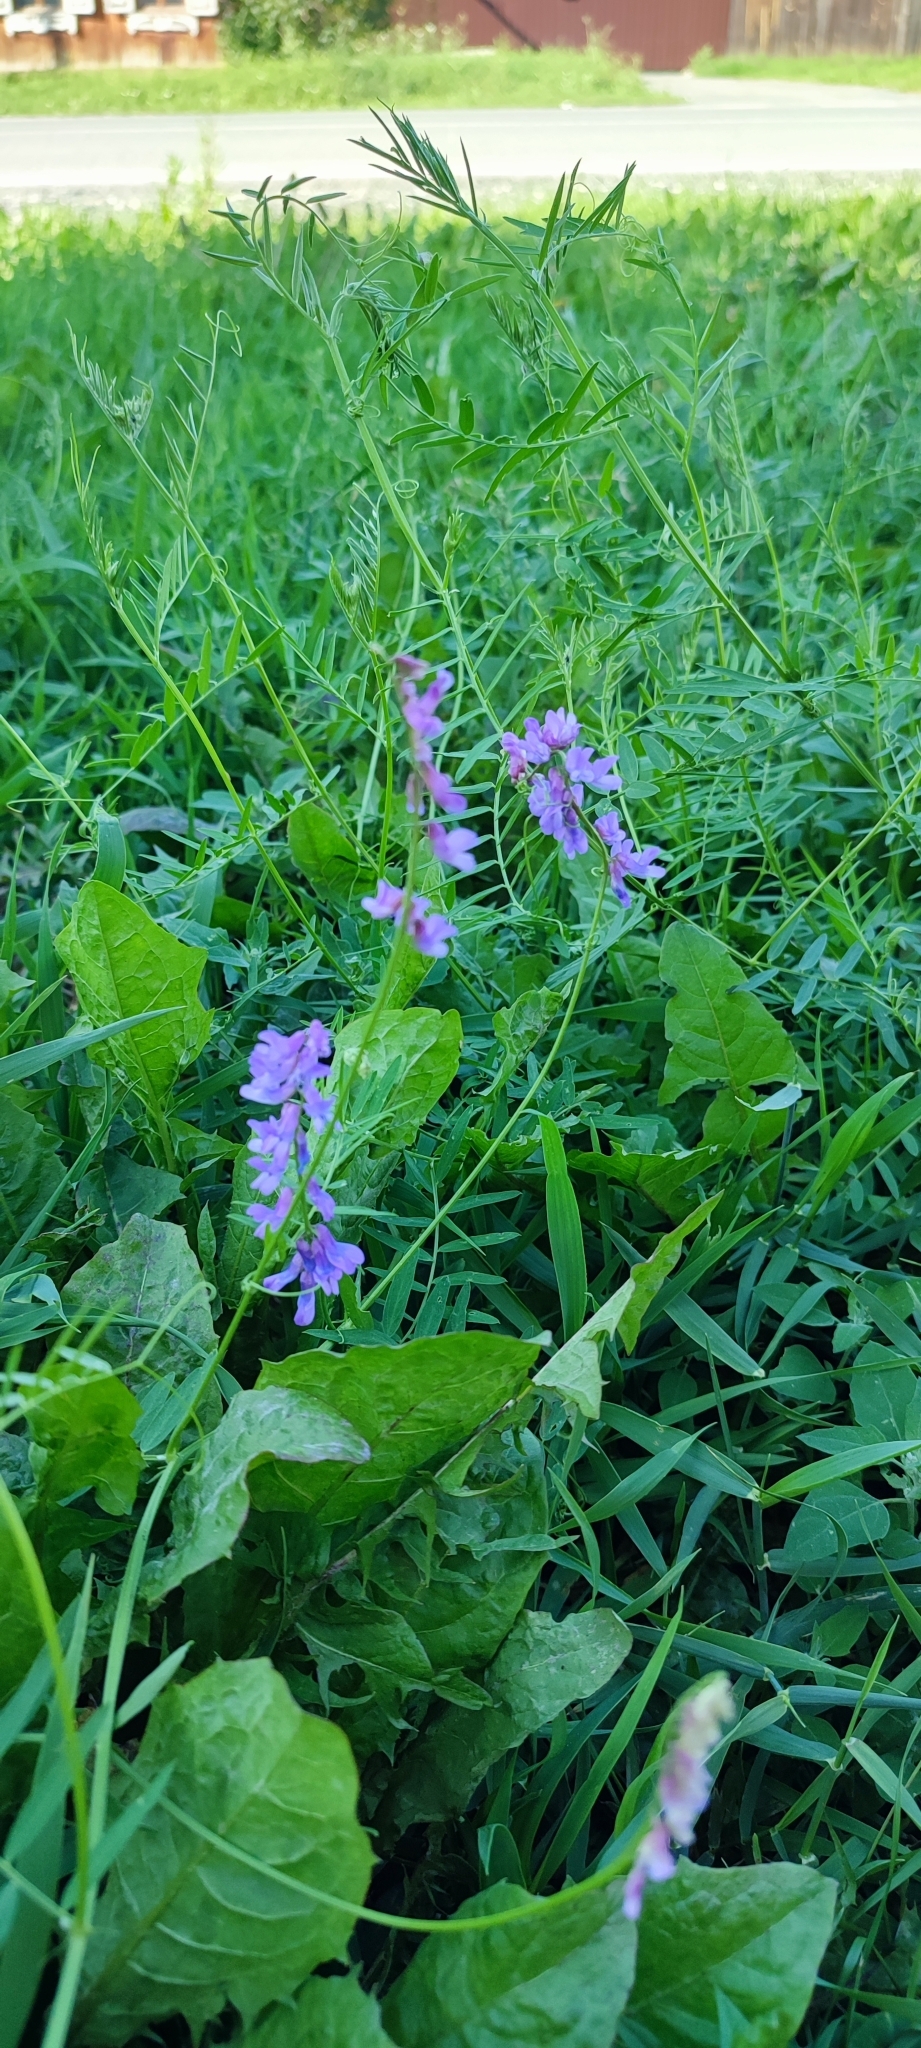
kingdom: Plantae
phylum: Tracheophyta
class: Magnoliopsida
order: Fabales
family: Fabaceae
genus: Vicia
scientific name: Vicia tenuifolia
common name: Fine-leaved vetch
